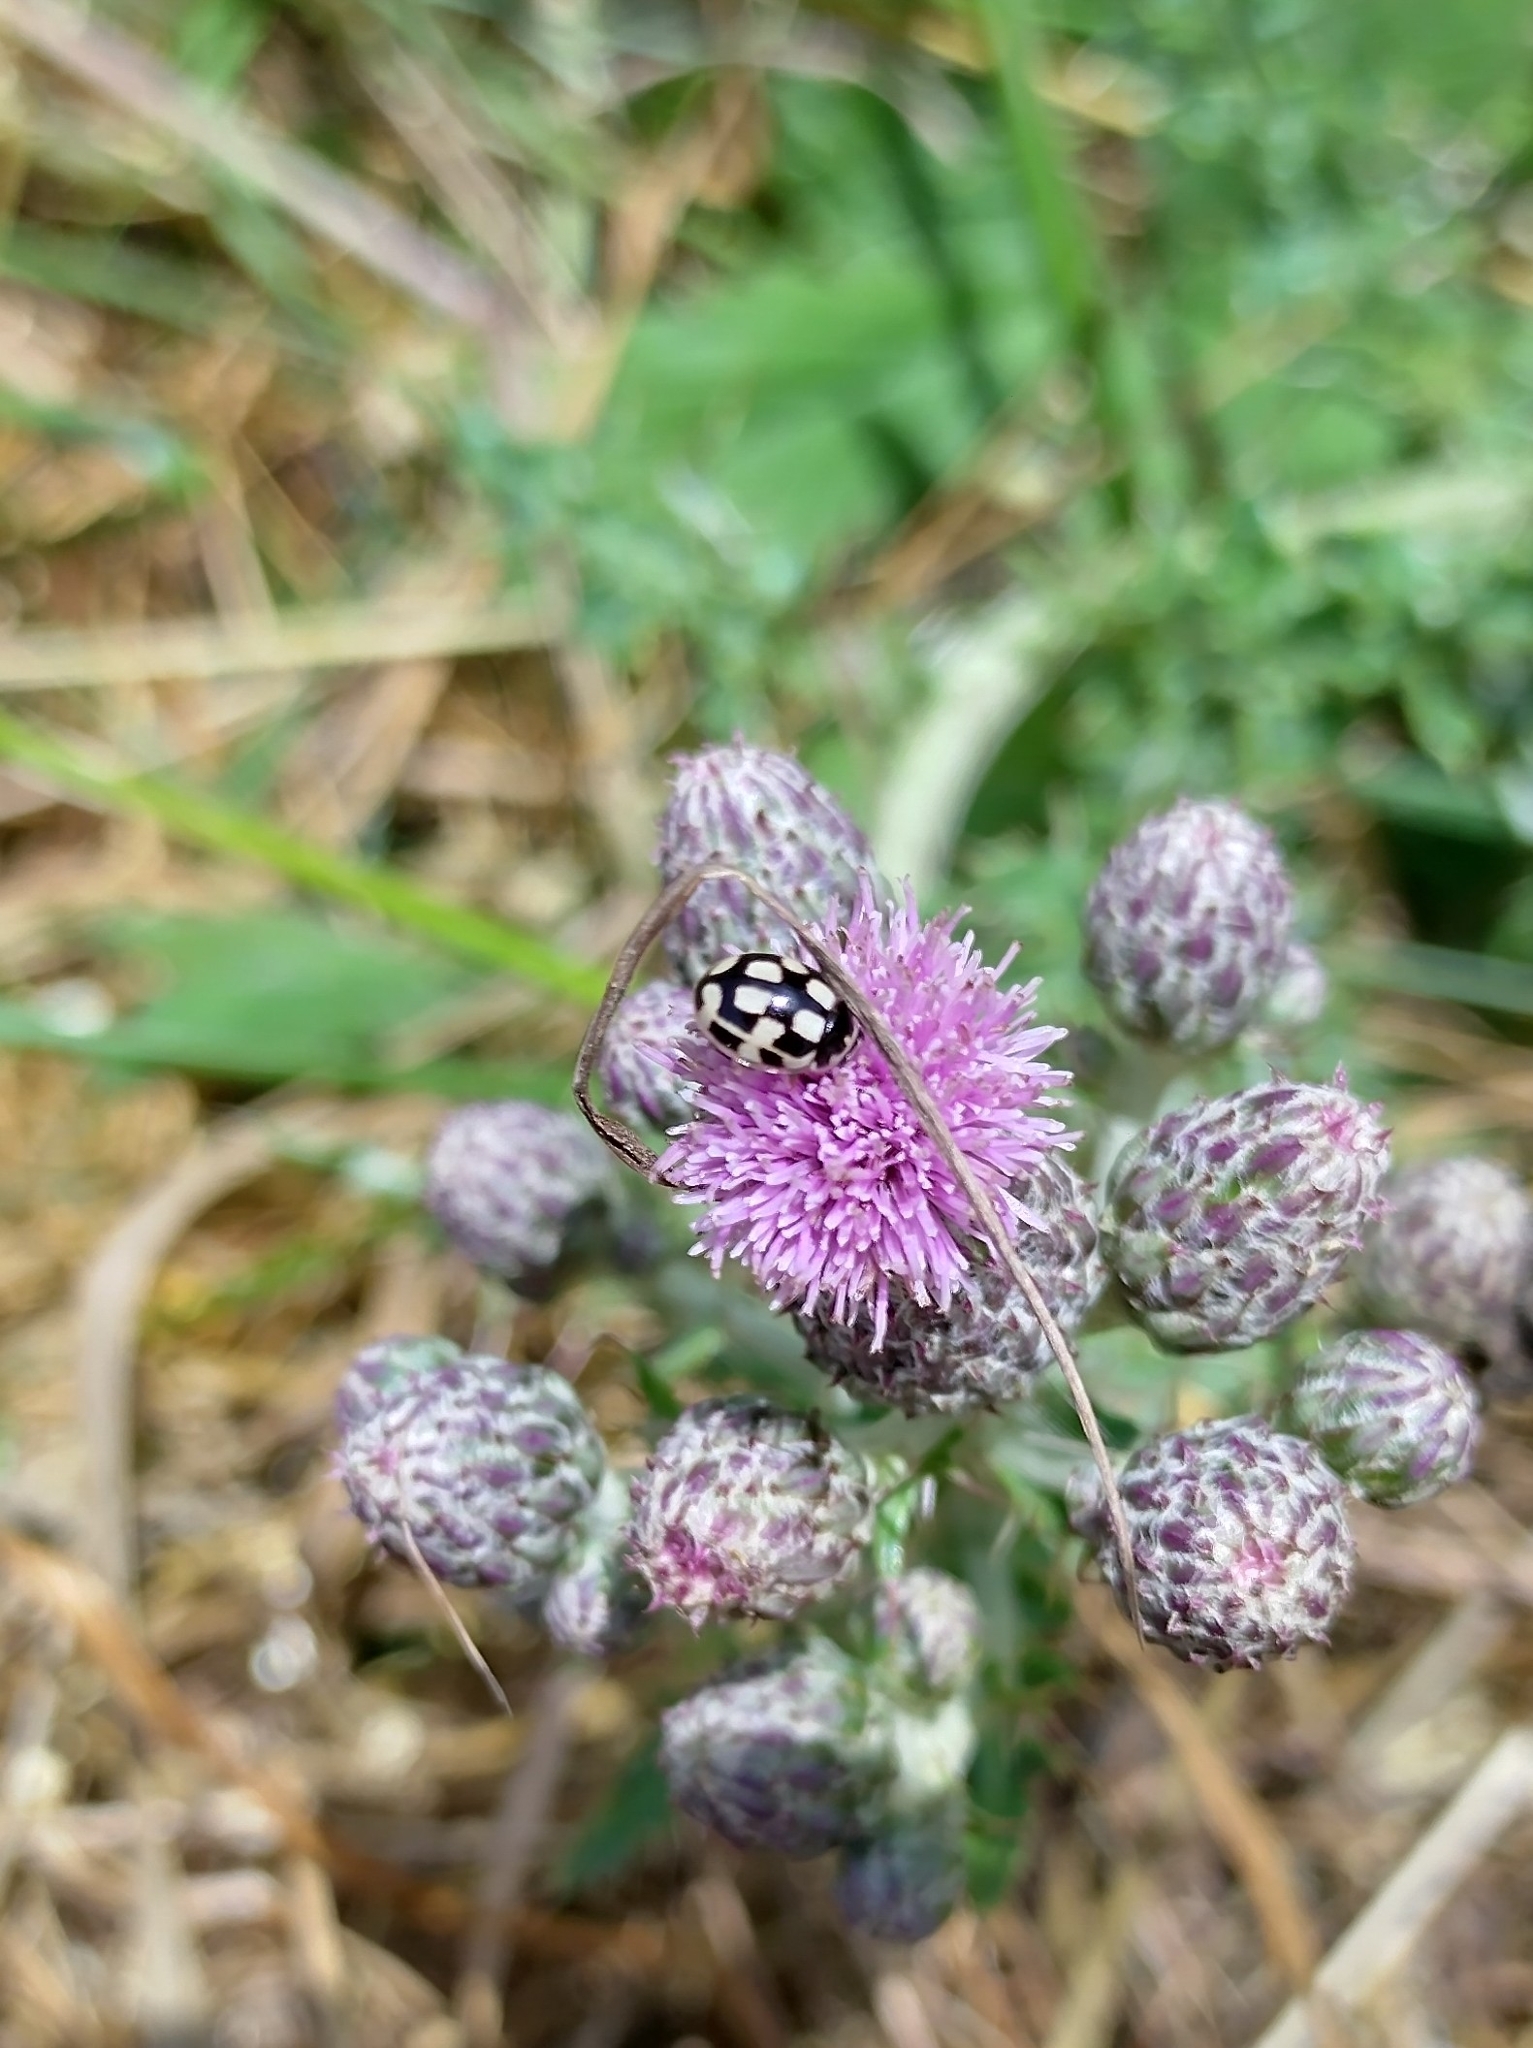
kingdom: Animalia
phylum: Arthropoda
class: Insecta
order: Coleoptera
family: Coccinellidae
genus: Propylaea
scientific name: Propylaea quatuordecimpunctata
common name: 14-spotted ladybird beetle
